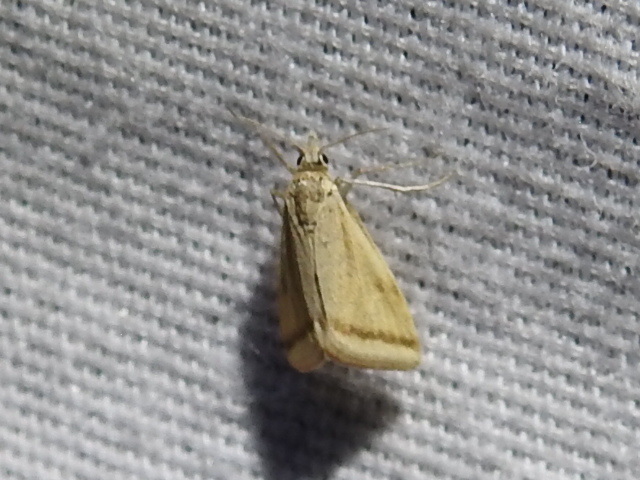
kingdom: Animalia
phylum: Arthropoda
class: Insecta
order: Lepidoptera
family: Crambidae
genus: Microtheoris
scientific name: Microtheoris vibicalis
